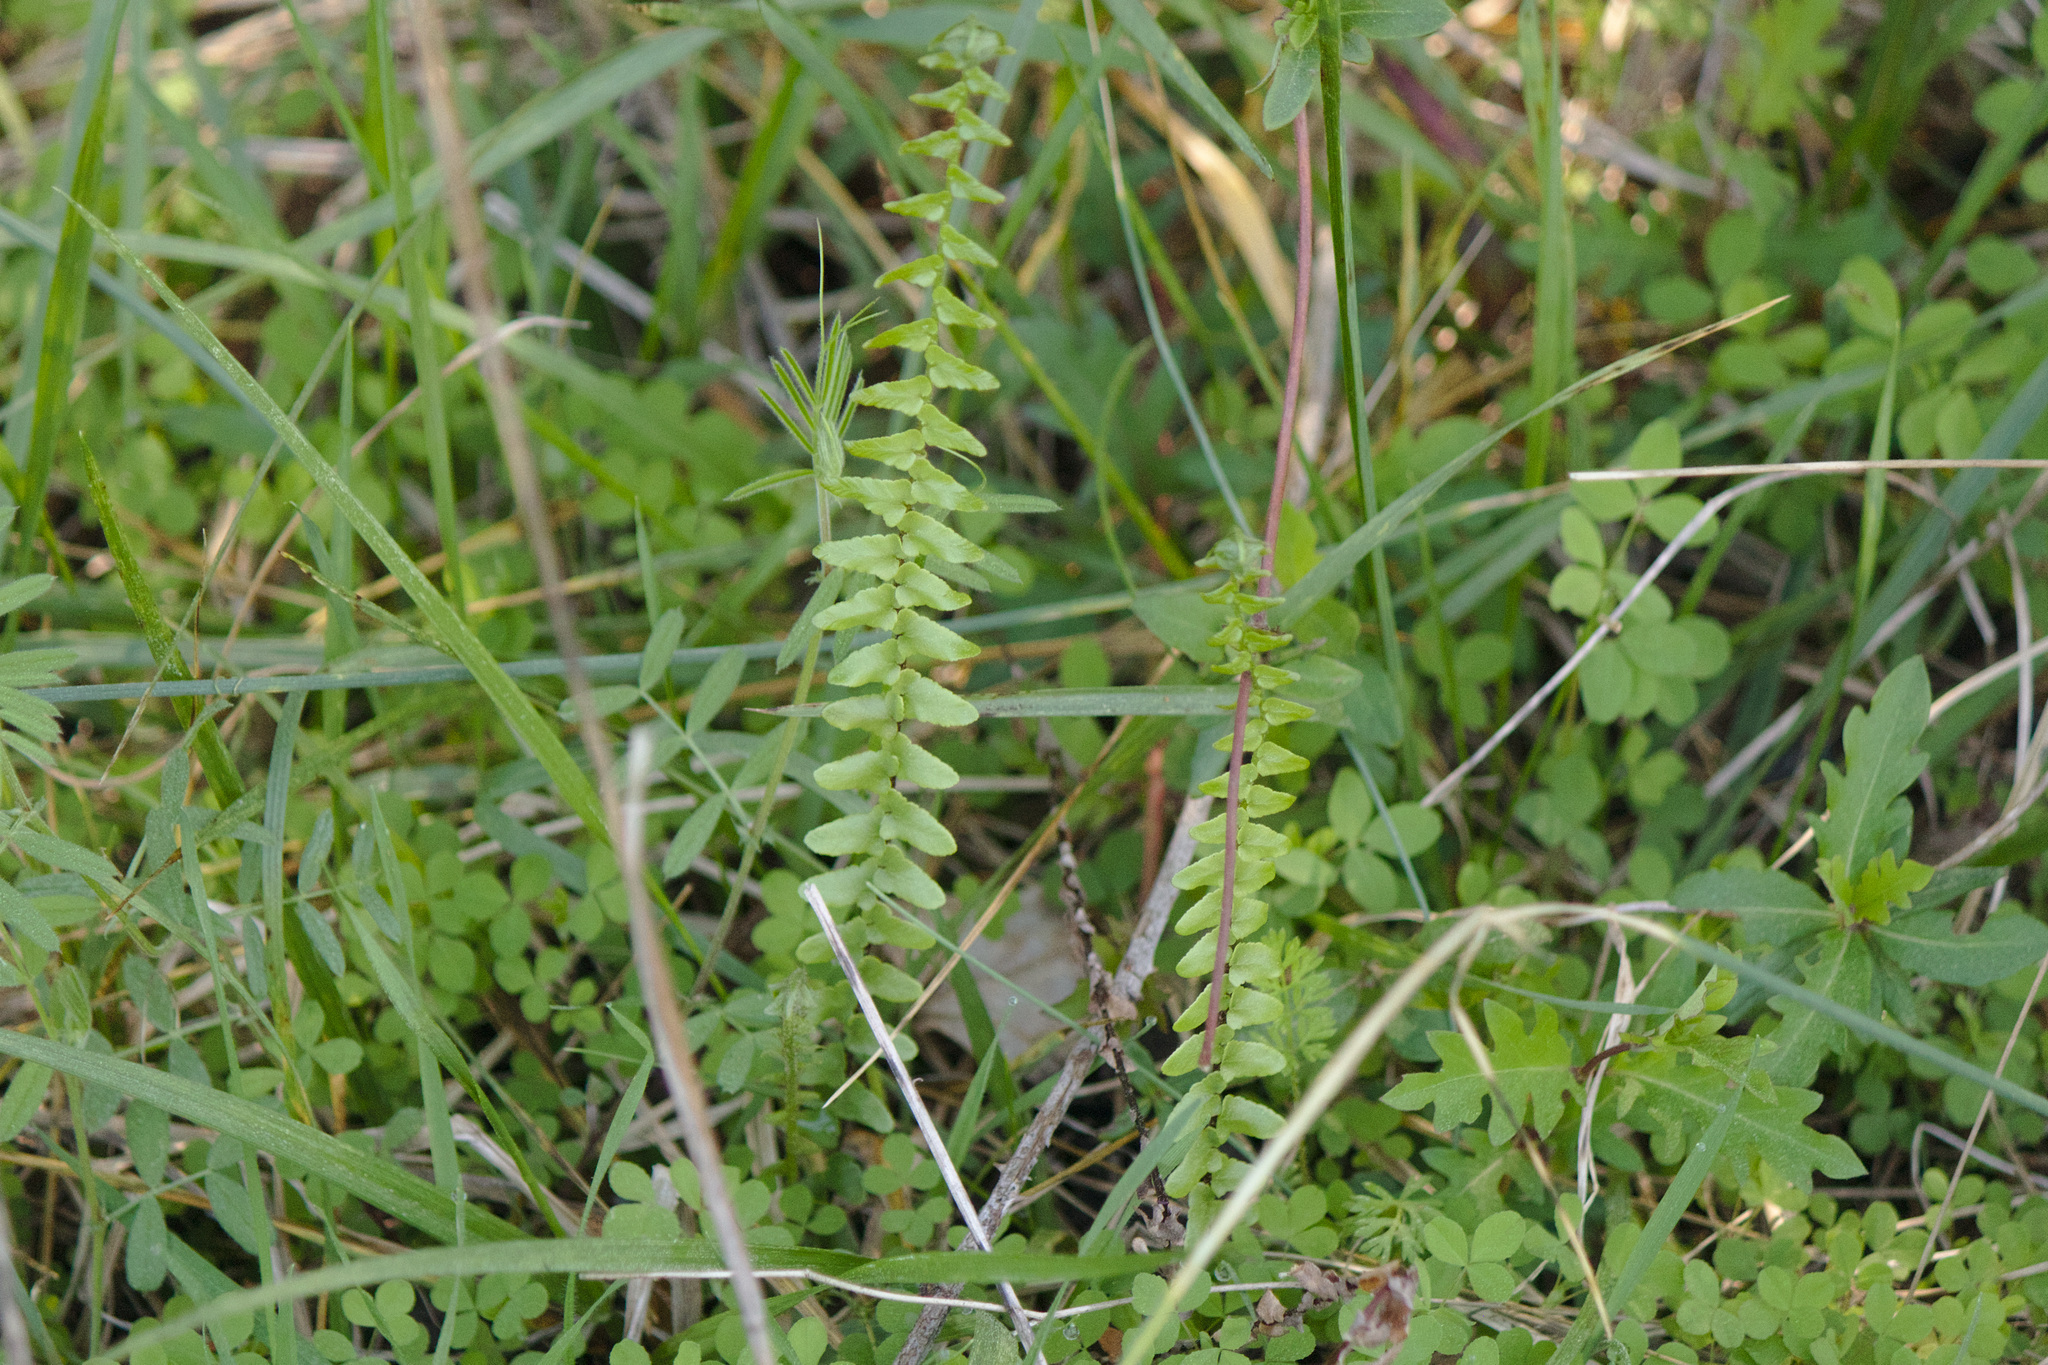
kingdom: Plantae
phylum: Tracheophyta
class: Polypodiopsida
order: Polypodiales
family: Aspleniaceae
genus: Asplenium
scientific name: Asplenium platyneuron
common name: Ebony spleenwort
